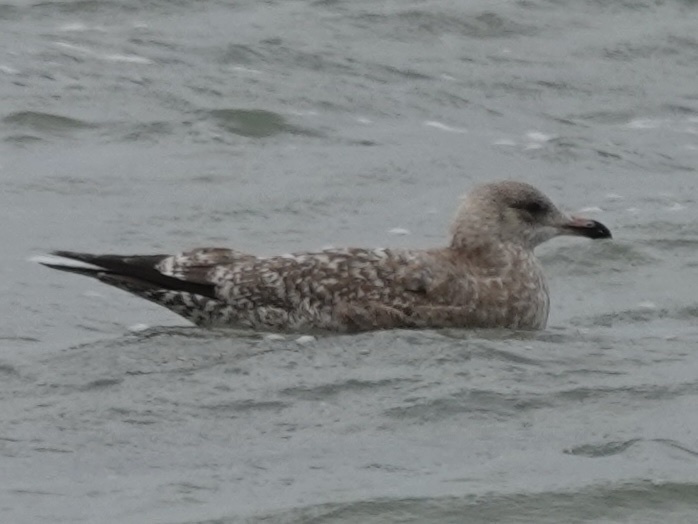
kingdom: Animalia
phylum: Chordata
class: Aves
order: Charadriiformes
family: Laridae
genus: Larus
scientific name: Larus argentatus
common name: Herring gull
